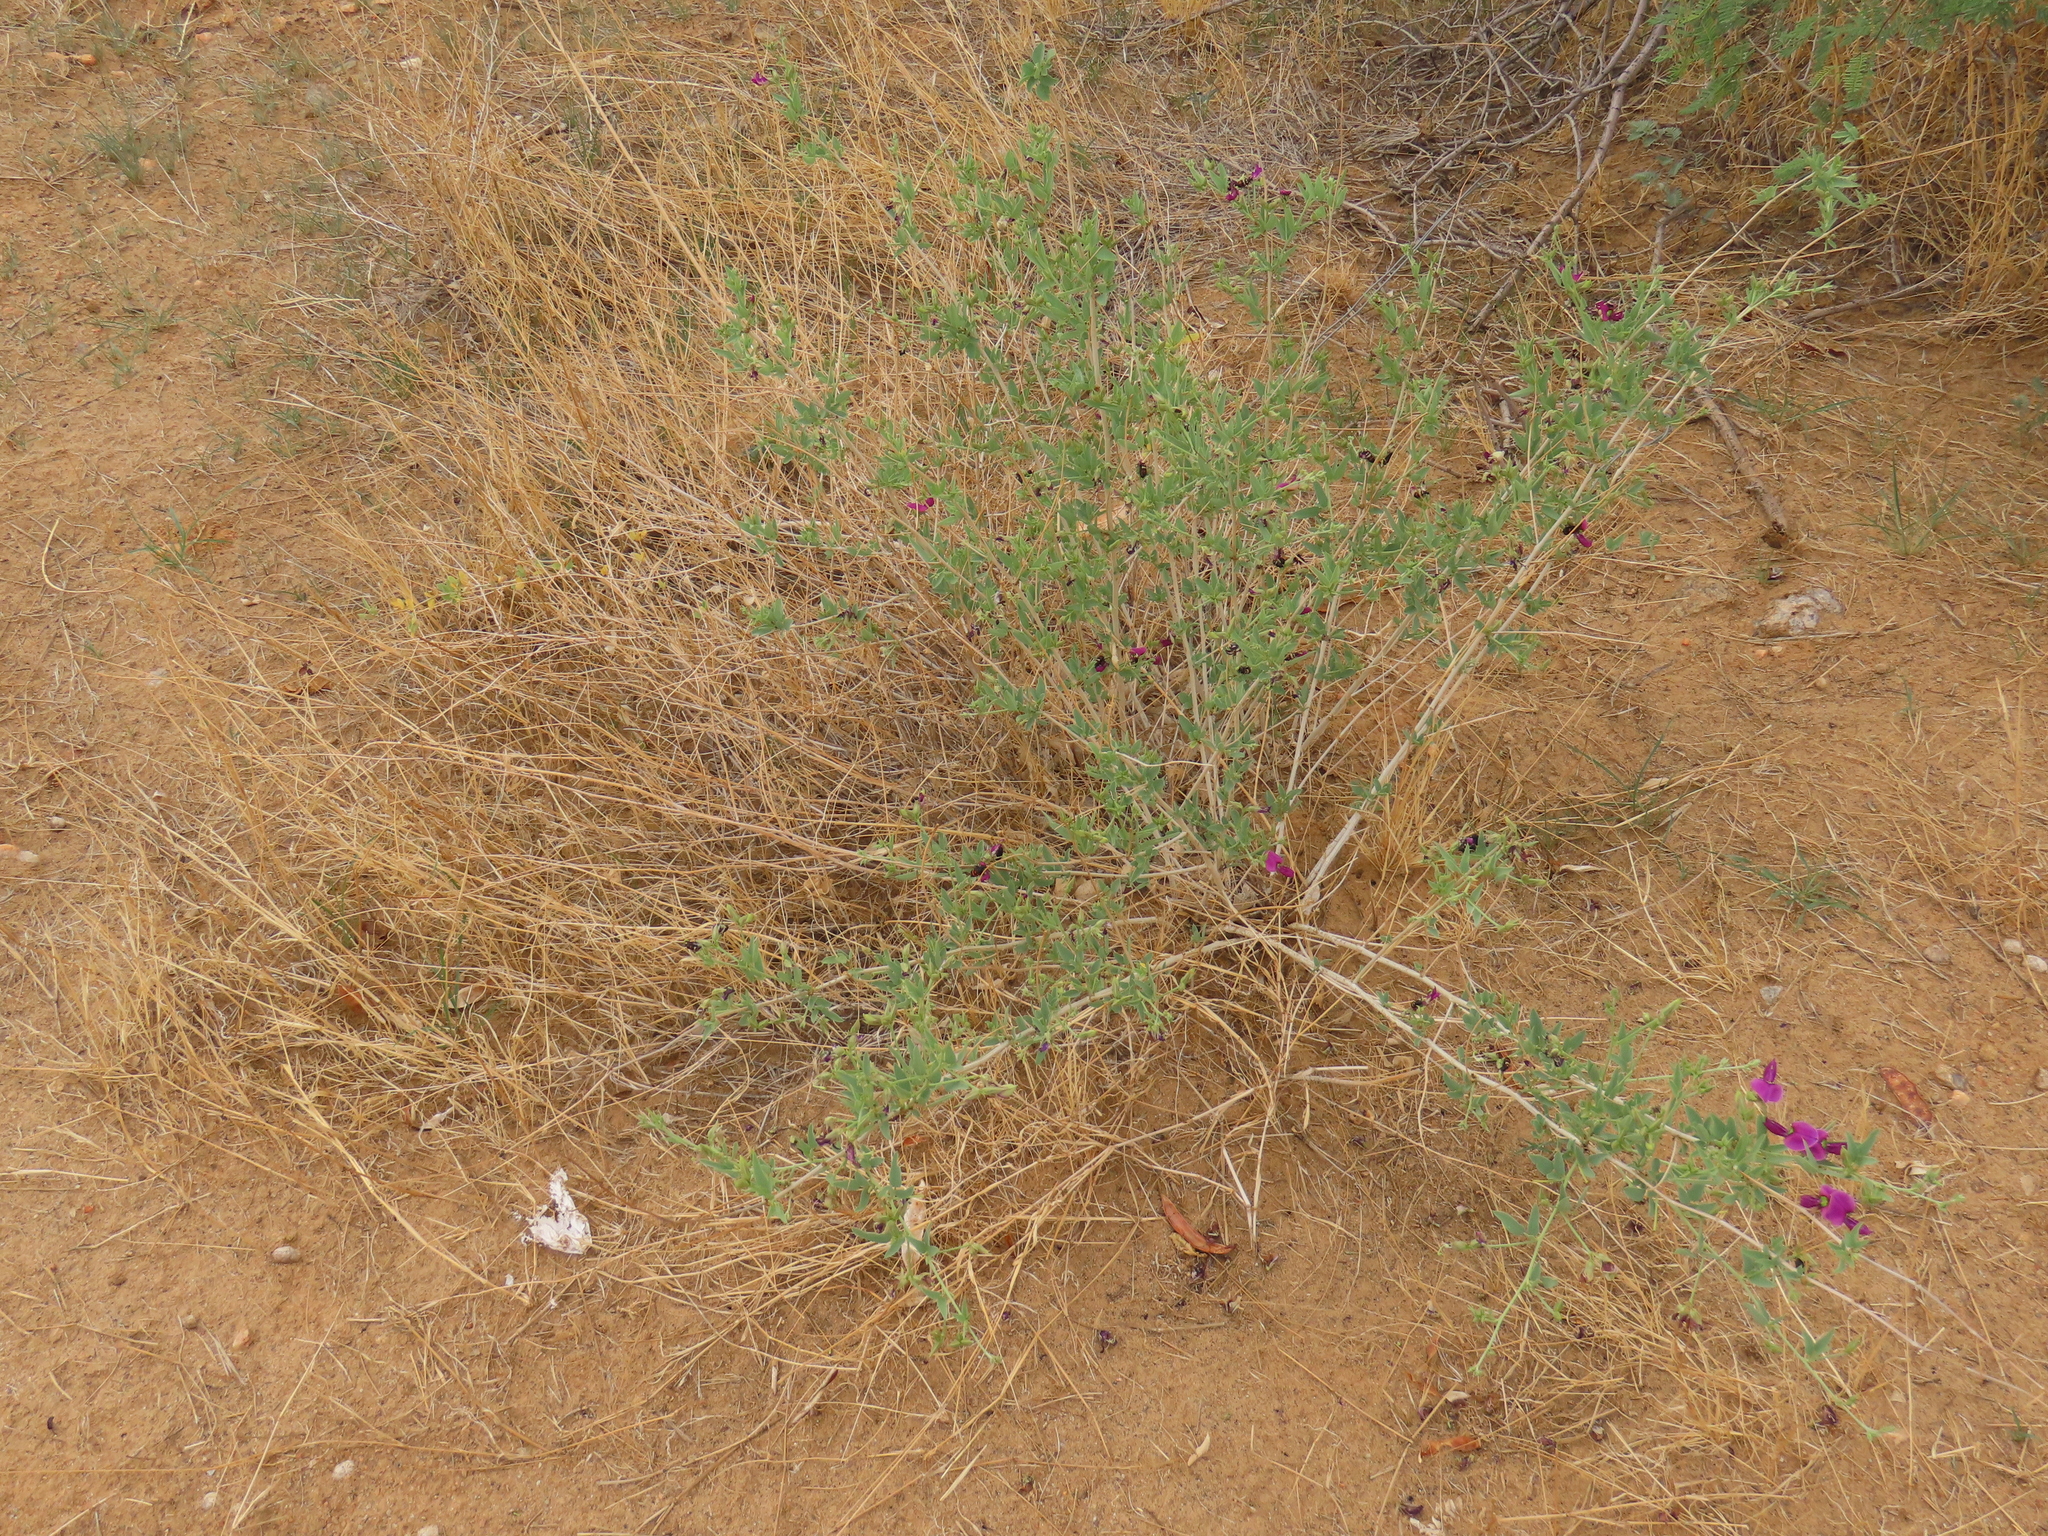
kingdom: Plantae
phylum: Tracheophyta
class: Magnoliopsida
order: Fabales
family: Fabaceae
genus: Otoptera
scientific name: Otoptera burchellii
